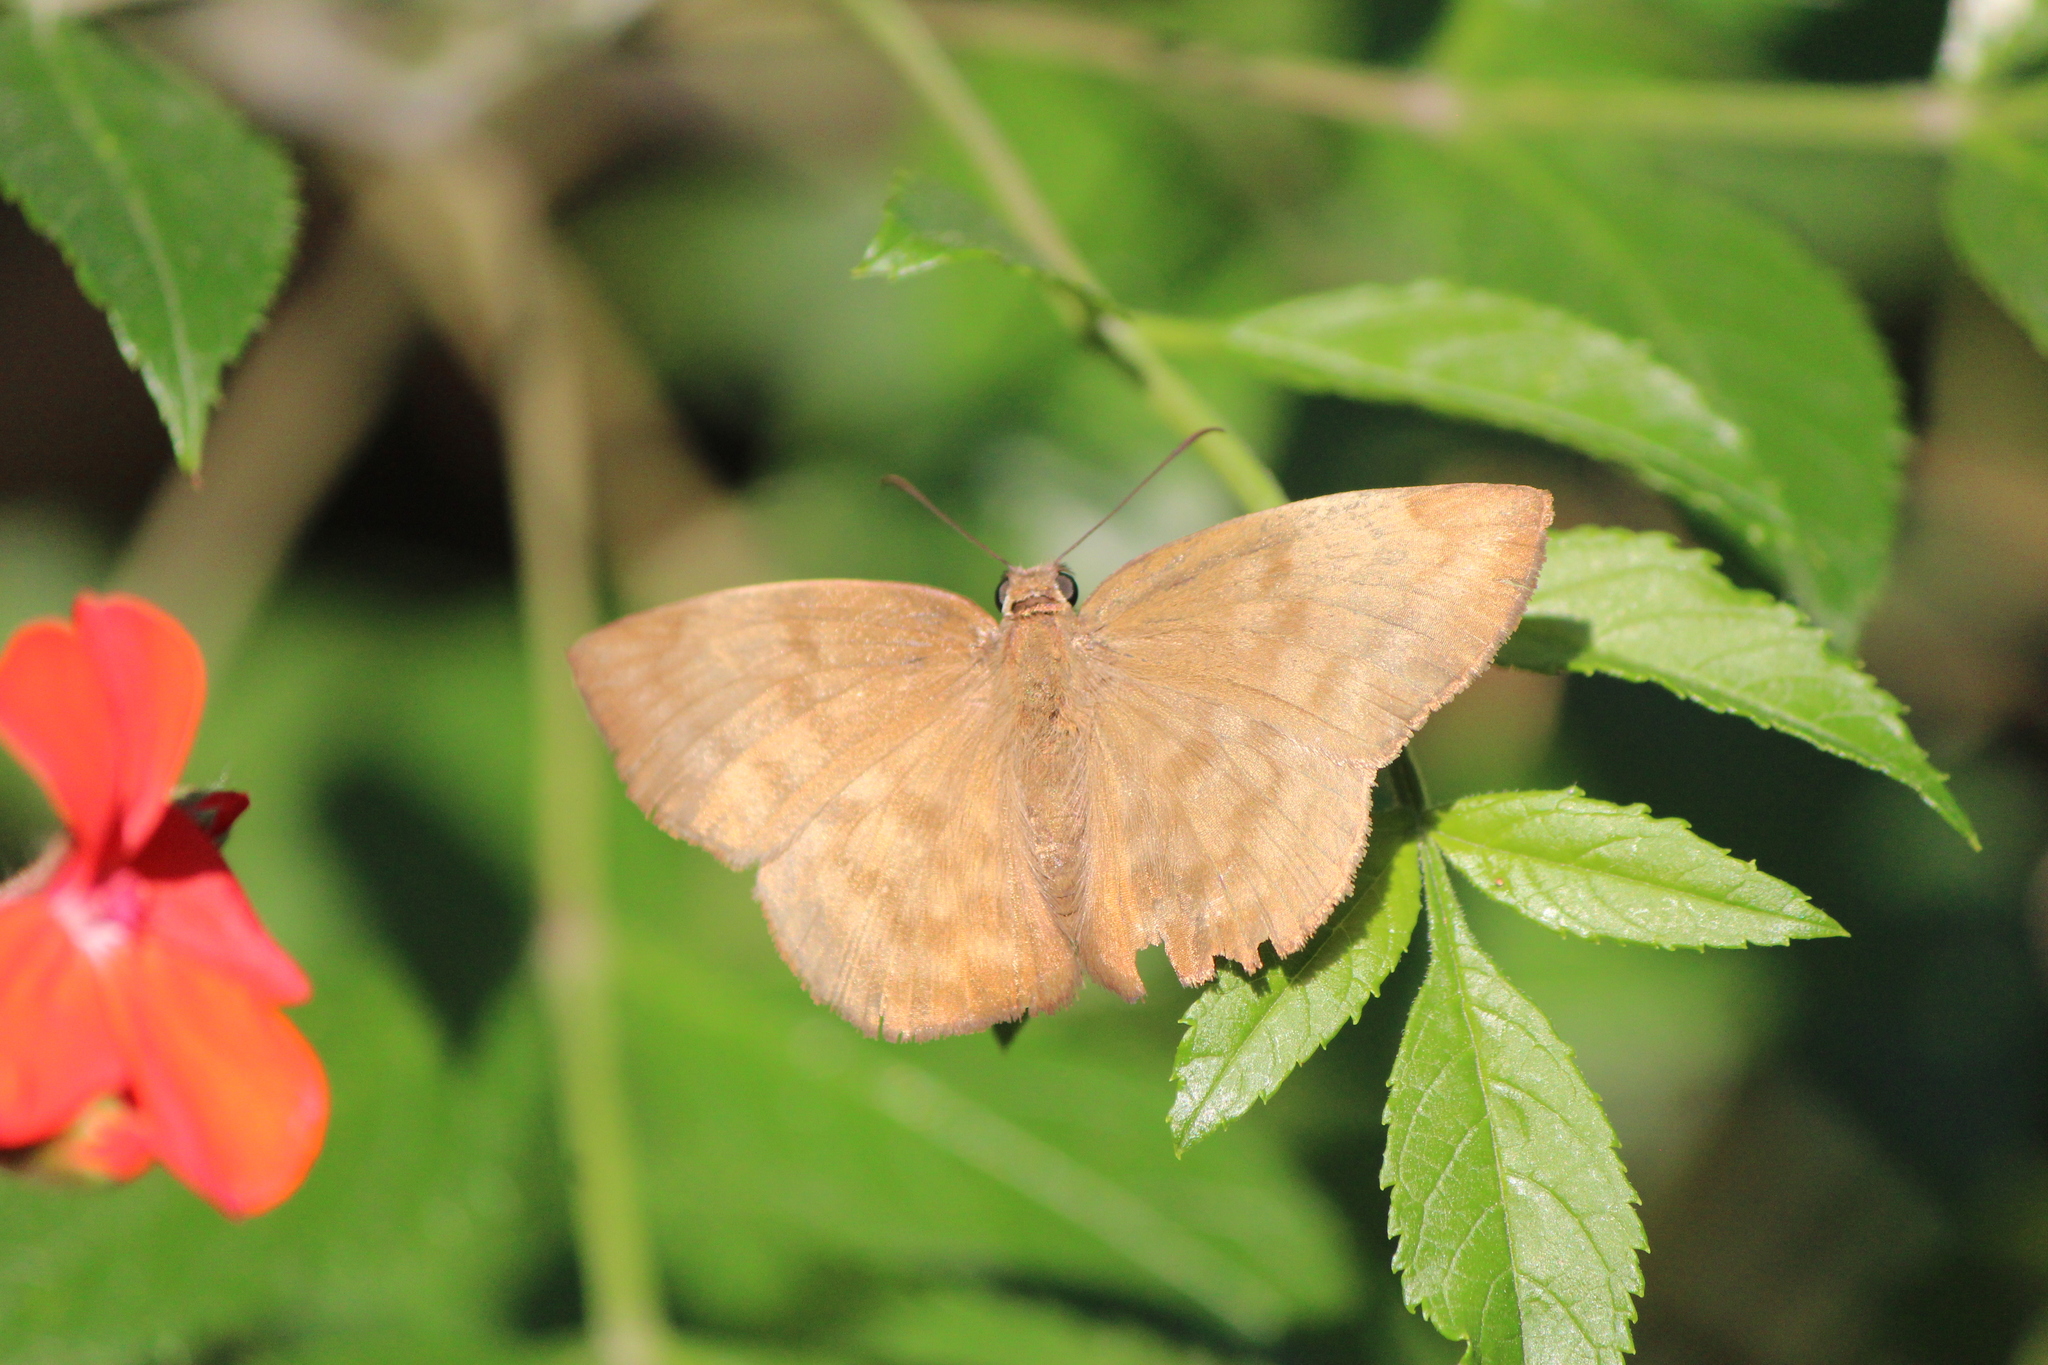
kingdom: Animalia
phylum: Arthropoda
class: Insecta
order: Lepidoptera
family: Hesperiidae
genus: Achlyodes
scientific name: Achlyodes pallida
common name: Pale sicklewing
